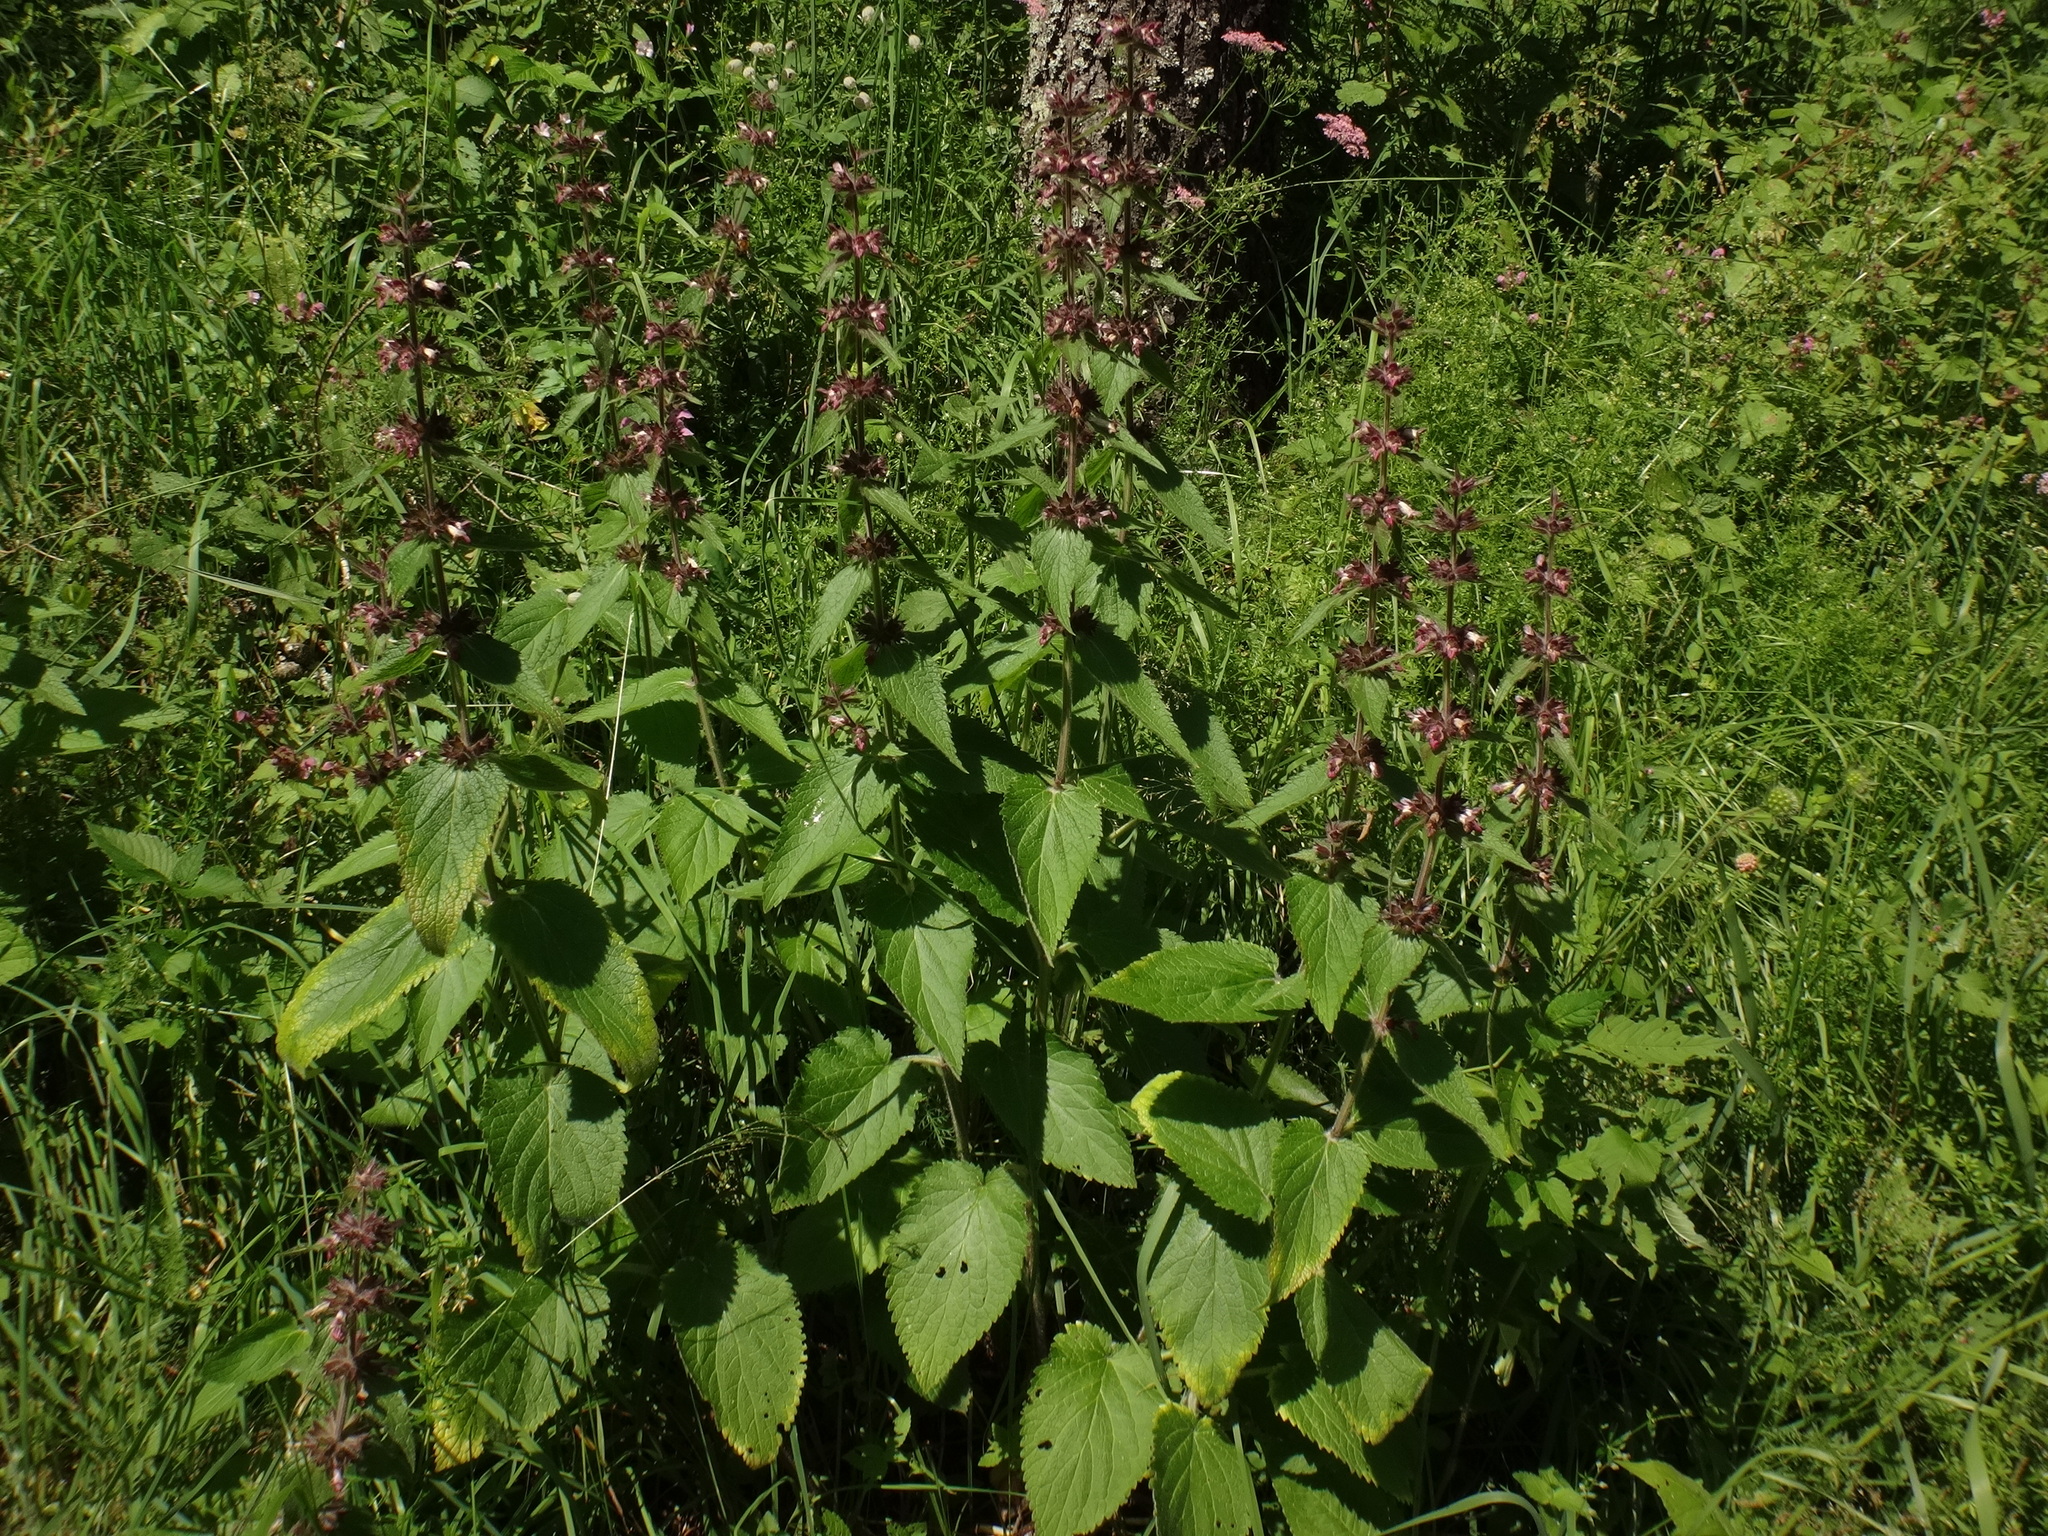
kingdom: Plantae
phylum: Tracheophyta
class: Magnoliopsida
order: Lamiales
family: Lamiaceae
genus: Stachys
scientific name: Stachys alpina
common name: Limestone woundwort
